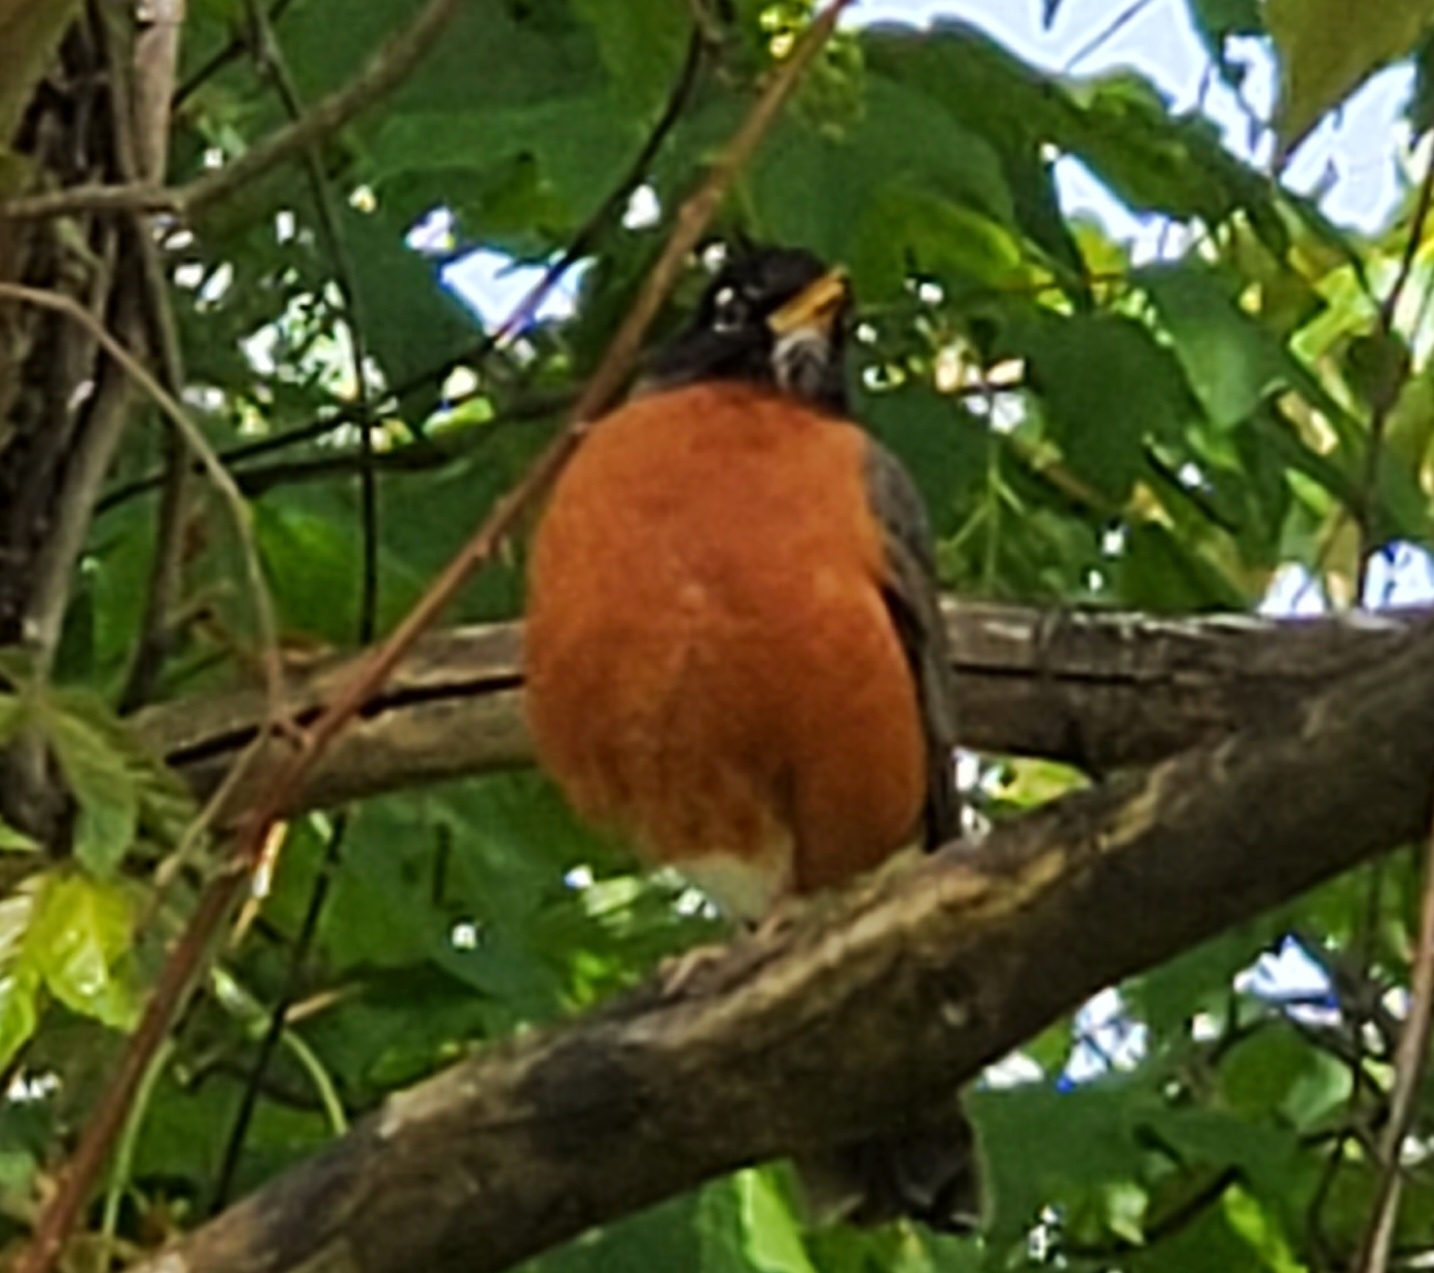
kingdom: Animalia
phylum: Chordata
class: Aves
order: Passeriformes
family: Turdidae
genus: Turdus
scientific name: Turdus migratorius
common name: American robin
